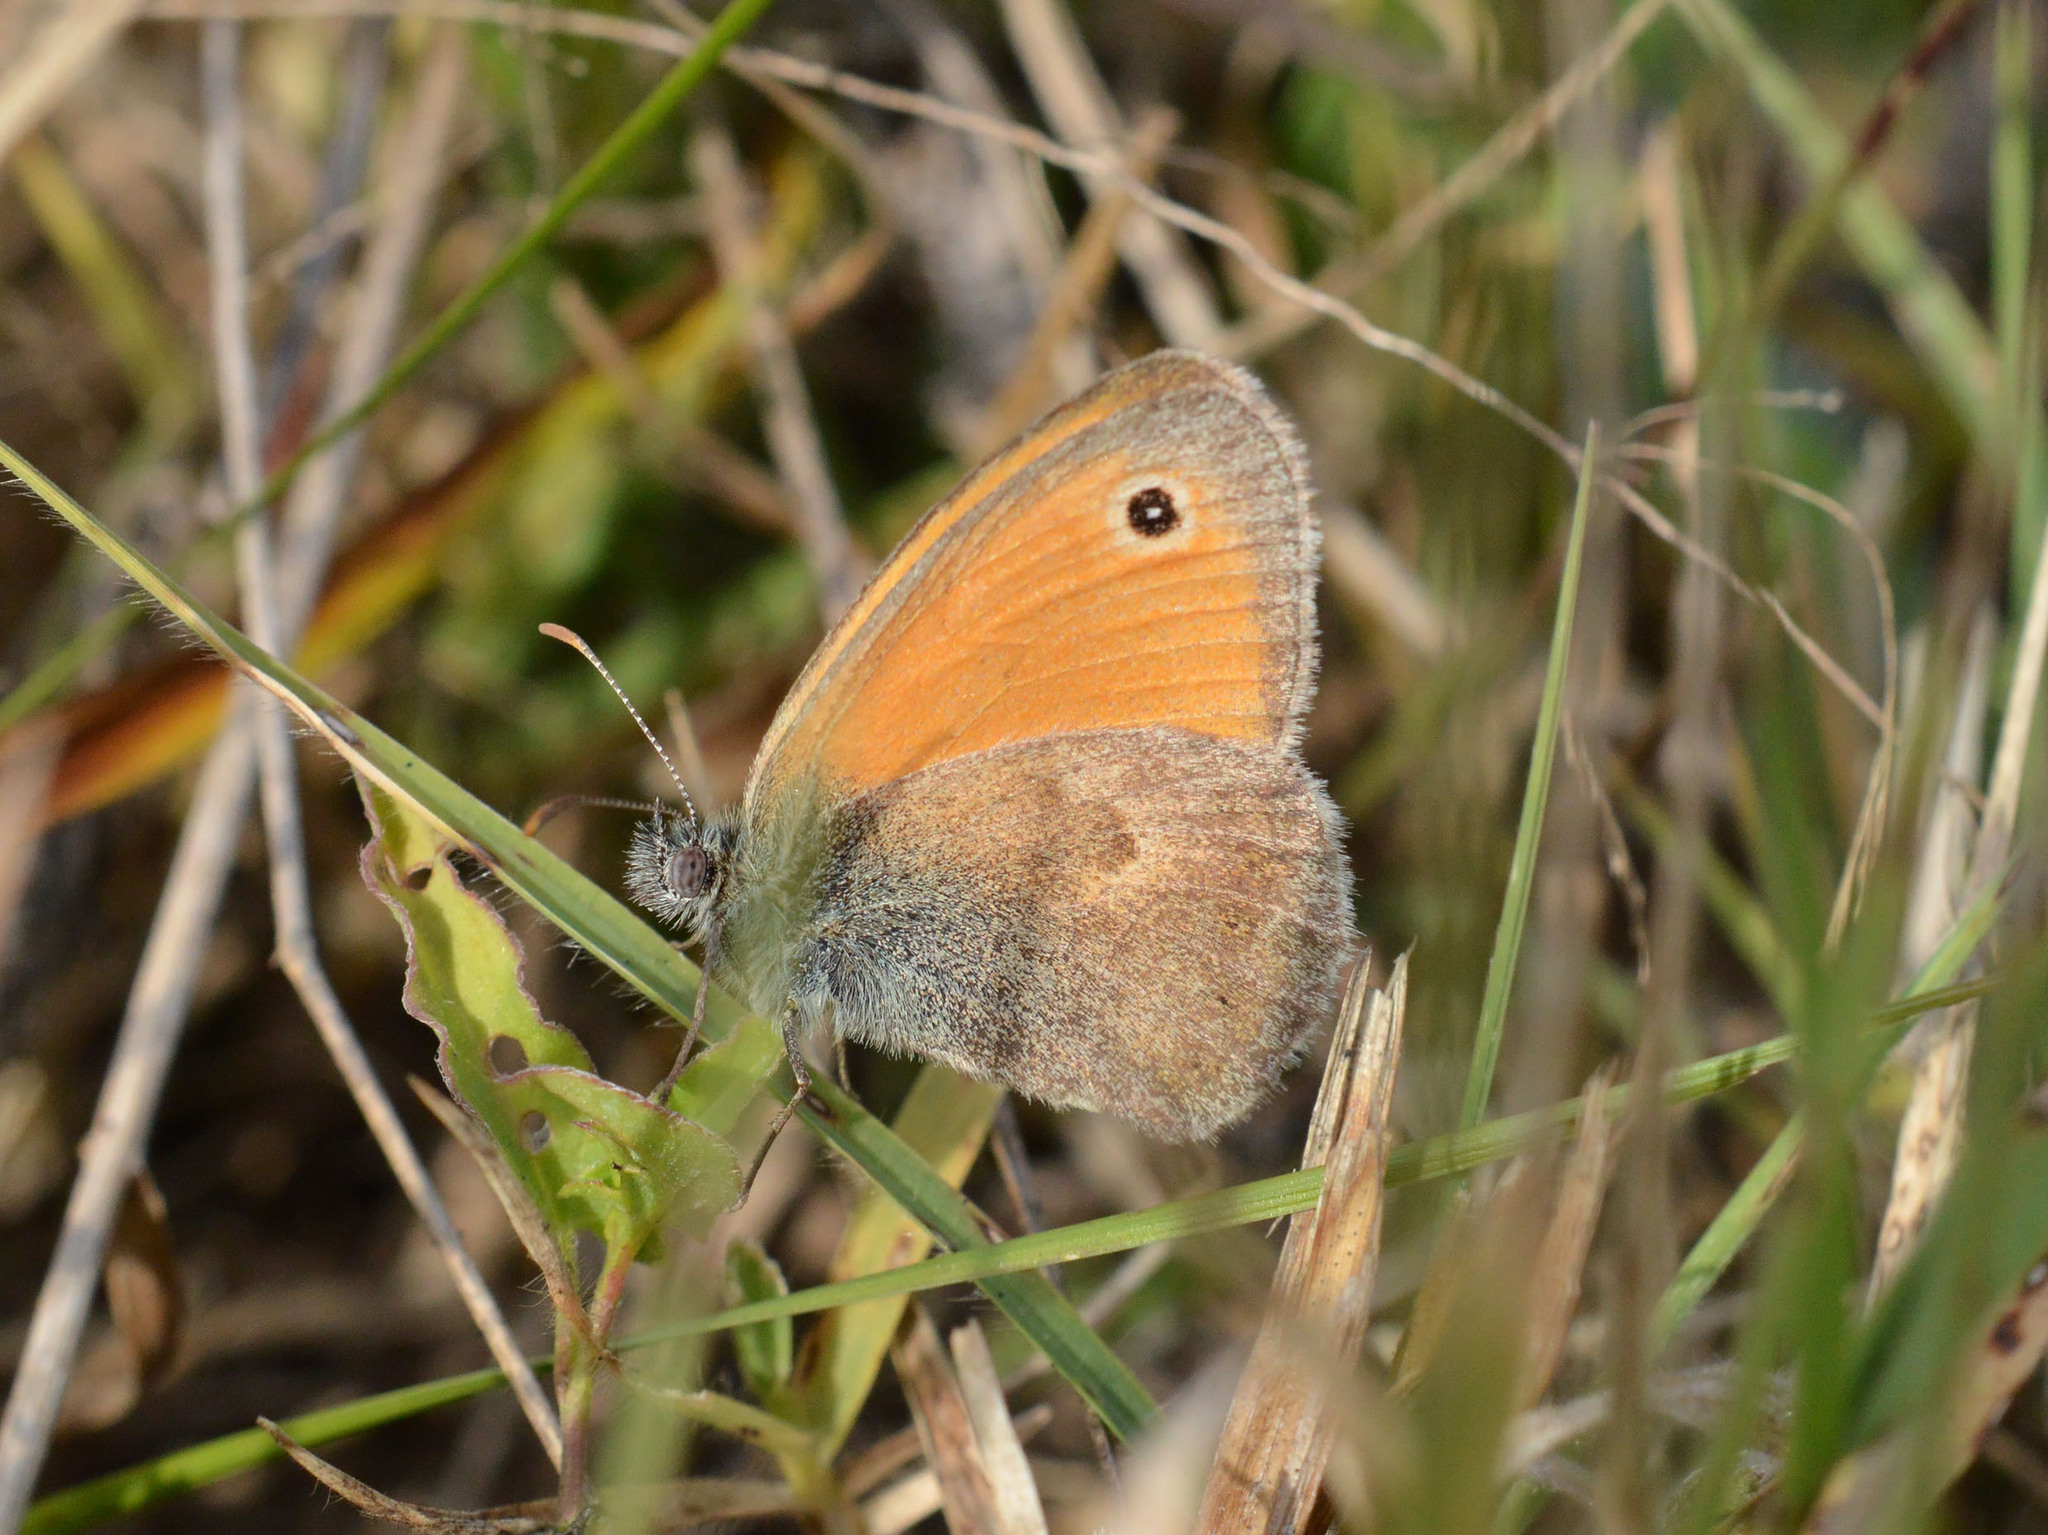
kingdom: Animalia
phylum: Arthropoda
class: Insecta
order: Lepidoptera
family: Nymphalidae
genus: Coenonympha
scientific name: Coenonympha pamphilus
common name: Small heath
